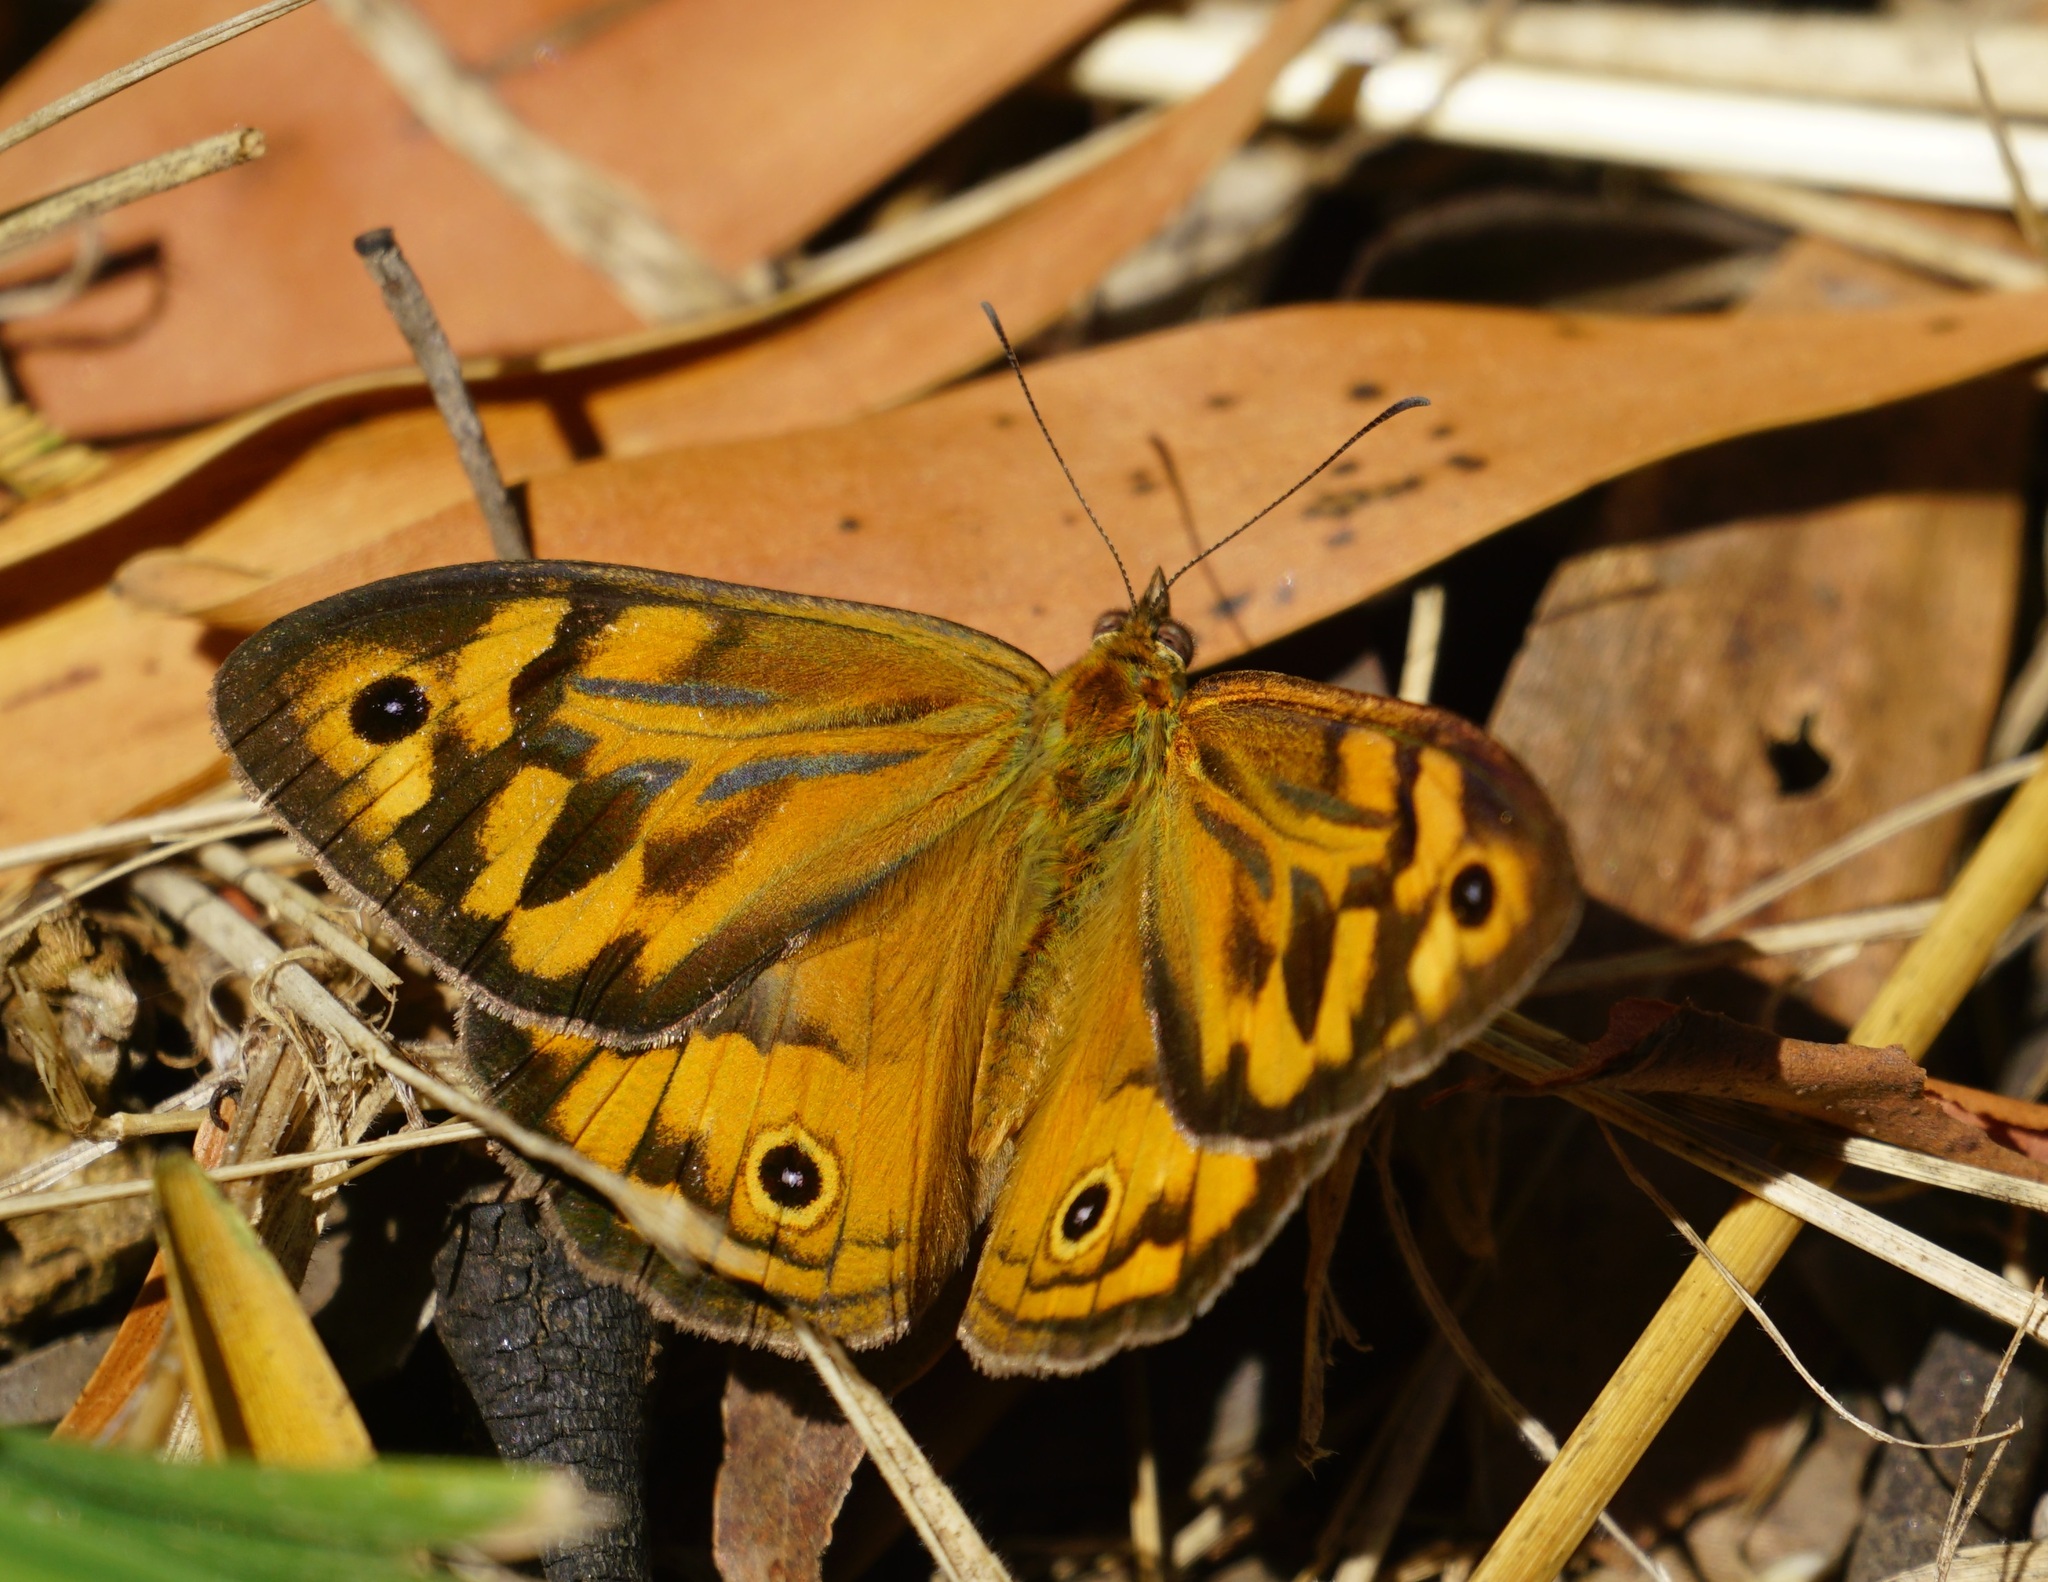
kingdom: Animalia
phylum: Arthropoda
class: Insecta
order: Lepidoptera
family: Nymphalidae
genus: Heteronympha
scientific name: Heteronympha merope
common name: Common brown
